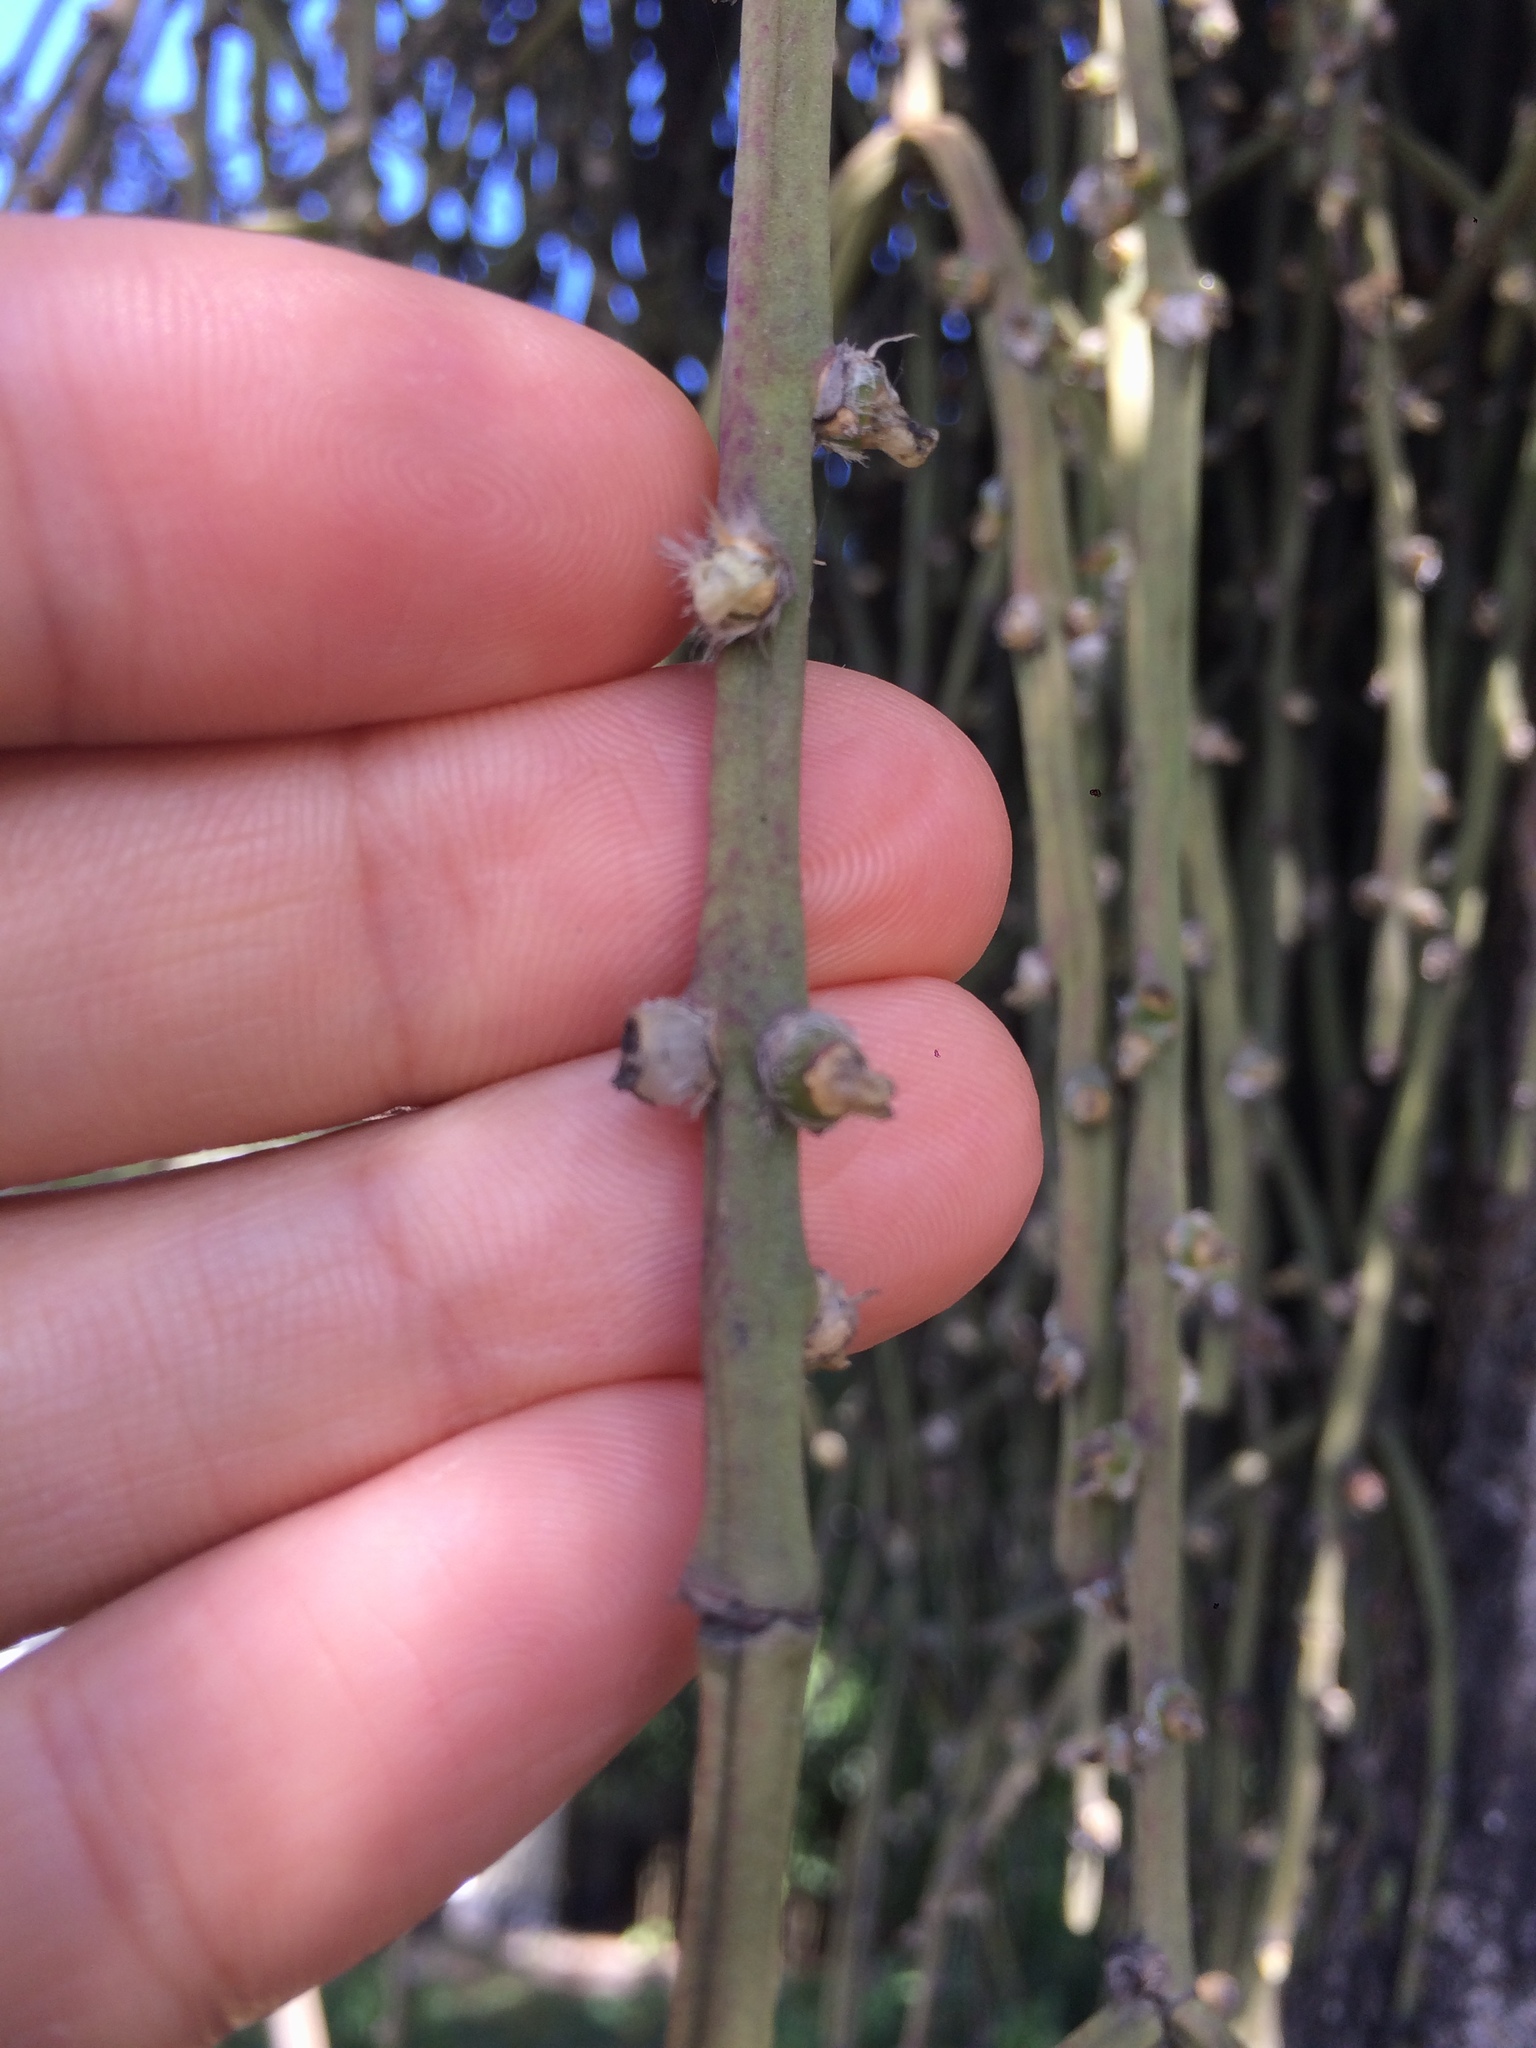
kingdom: Plantae
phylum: Tracheophyta
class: Magnoliopsida
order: Caryophyllales
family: Cactaceae
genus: Rhipsalis
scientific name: Rhipsalis floccosa
